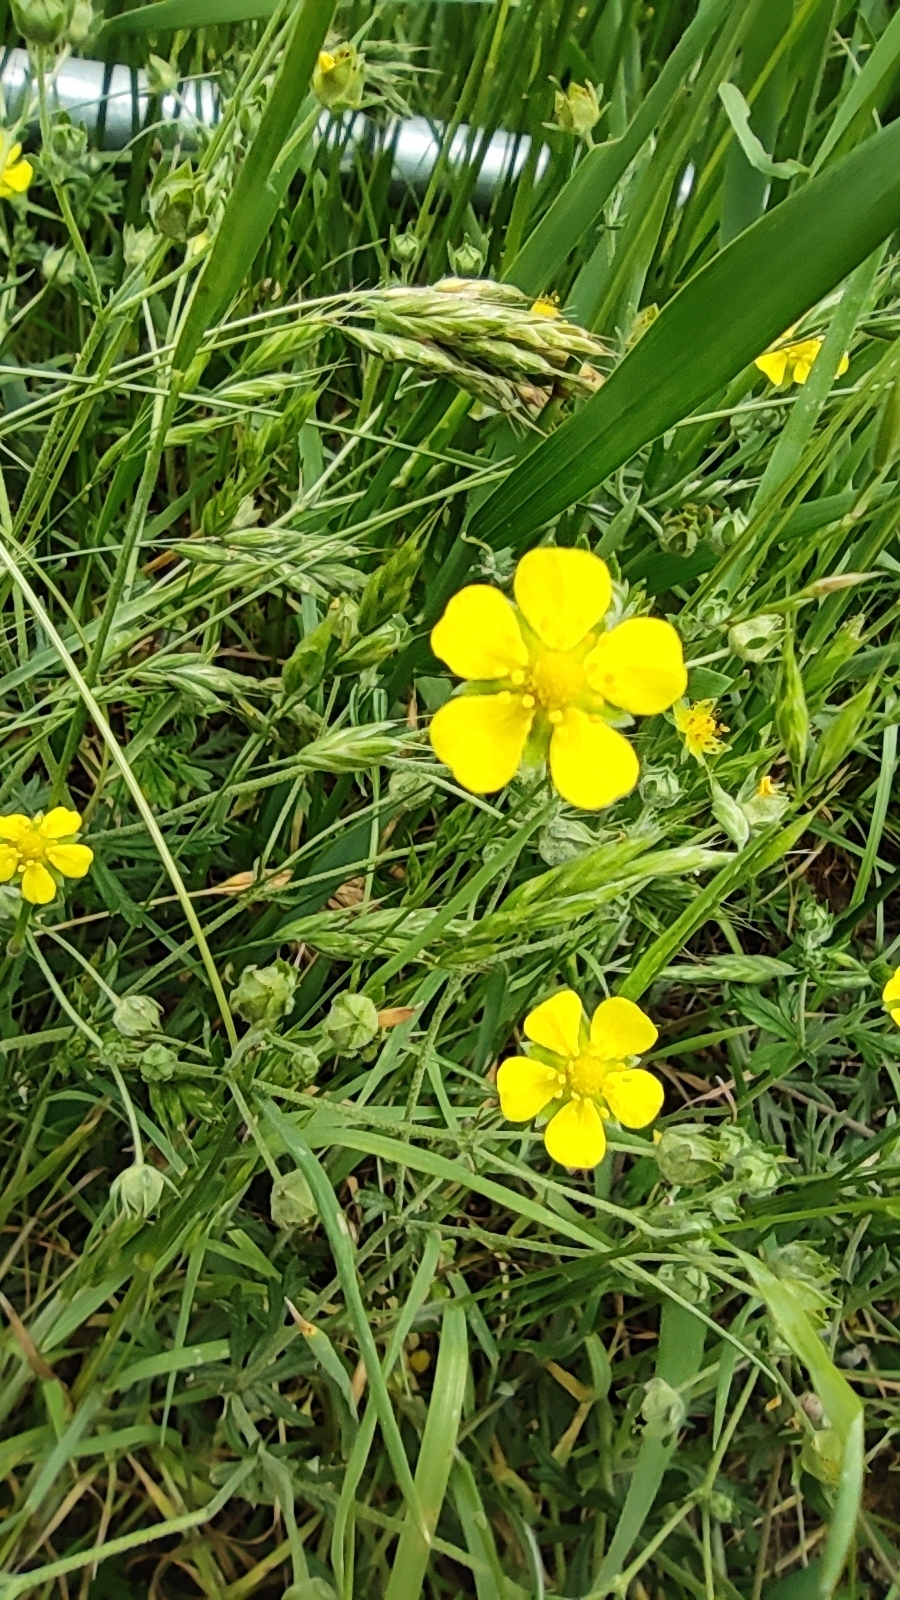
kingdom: Plantae
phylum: Tracheophyta
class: Magnoliopsida
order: Rosales
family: Rosaceae
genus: Potentilla
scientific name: Potentilla argentea
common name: Hoary cinquefoil
